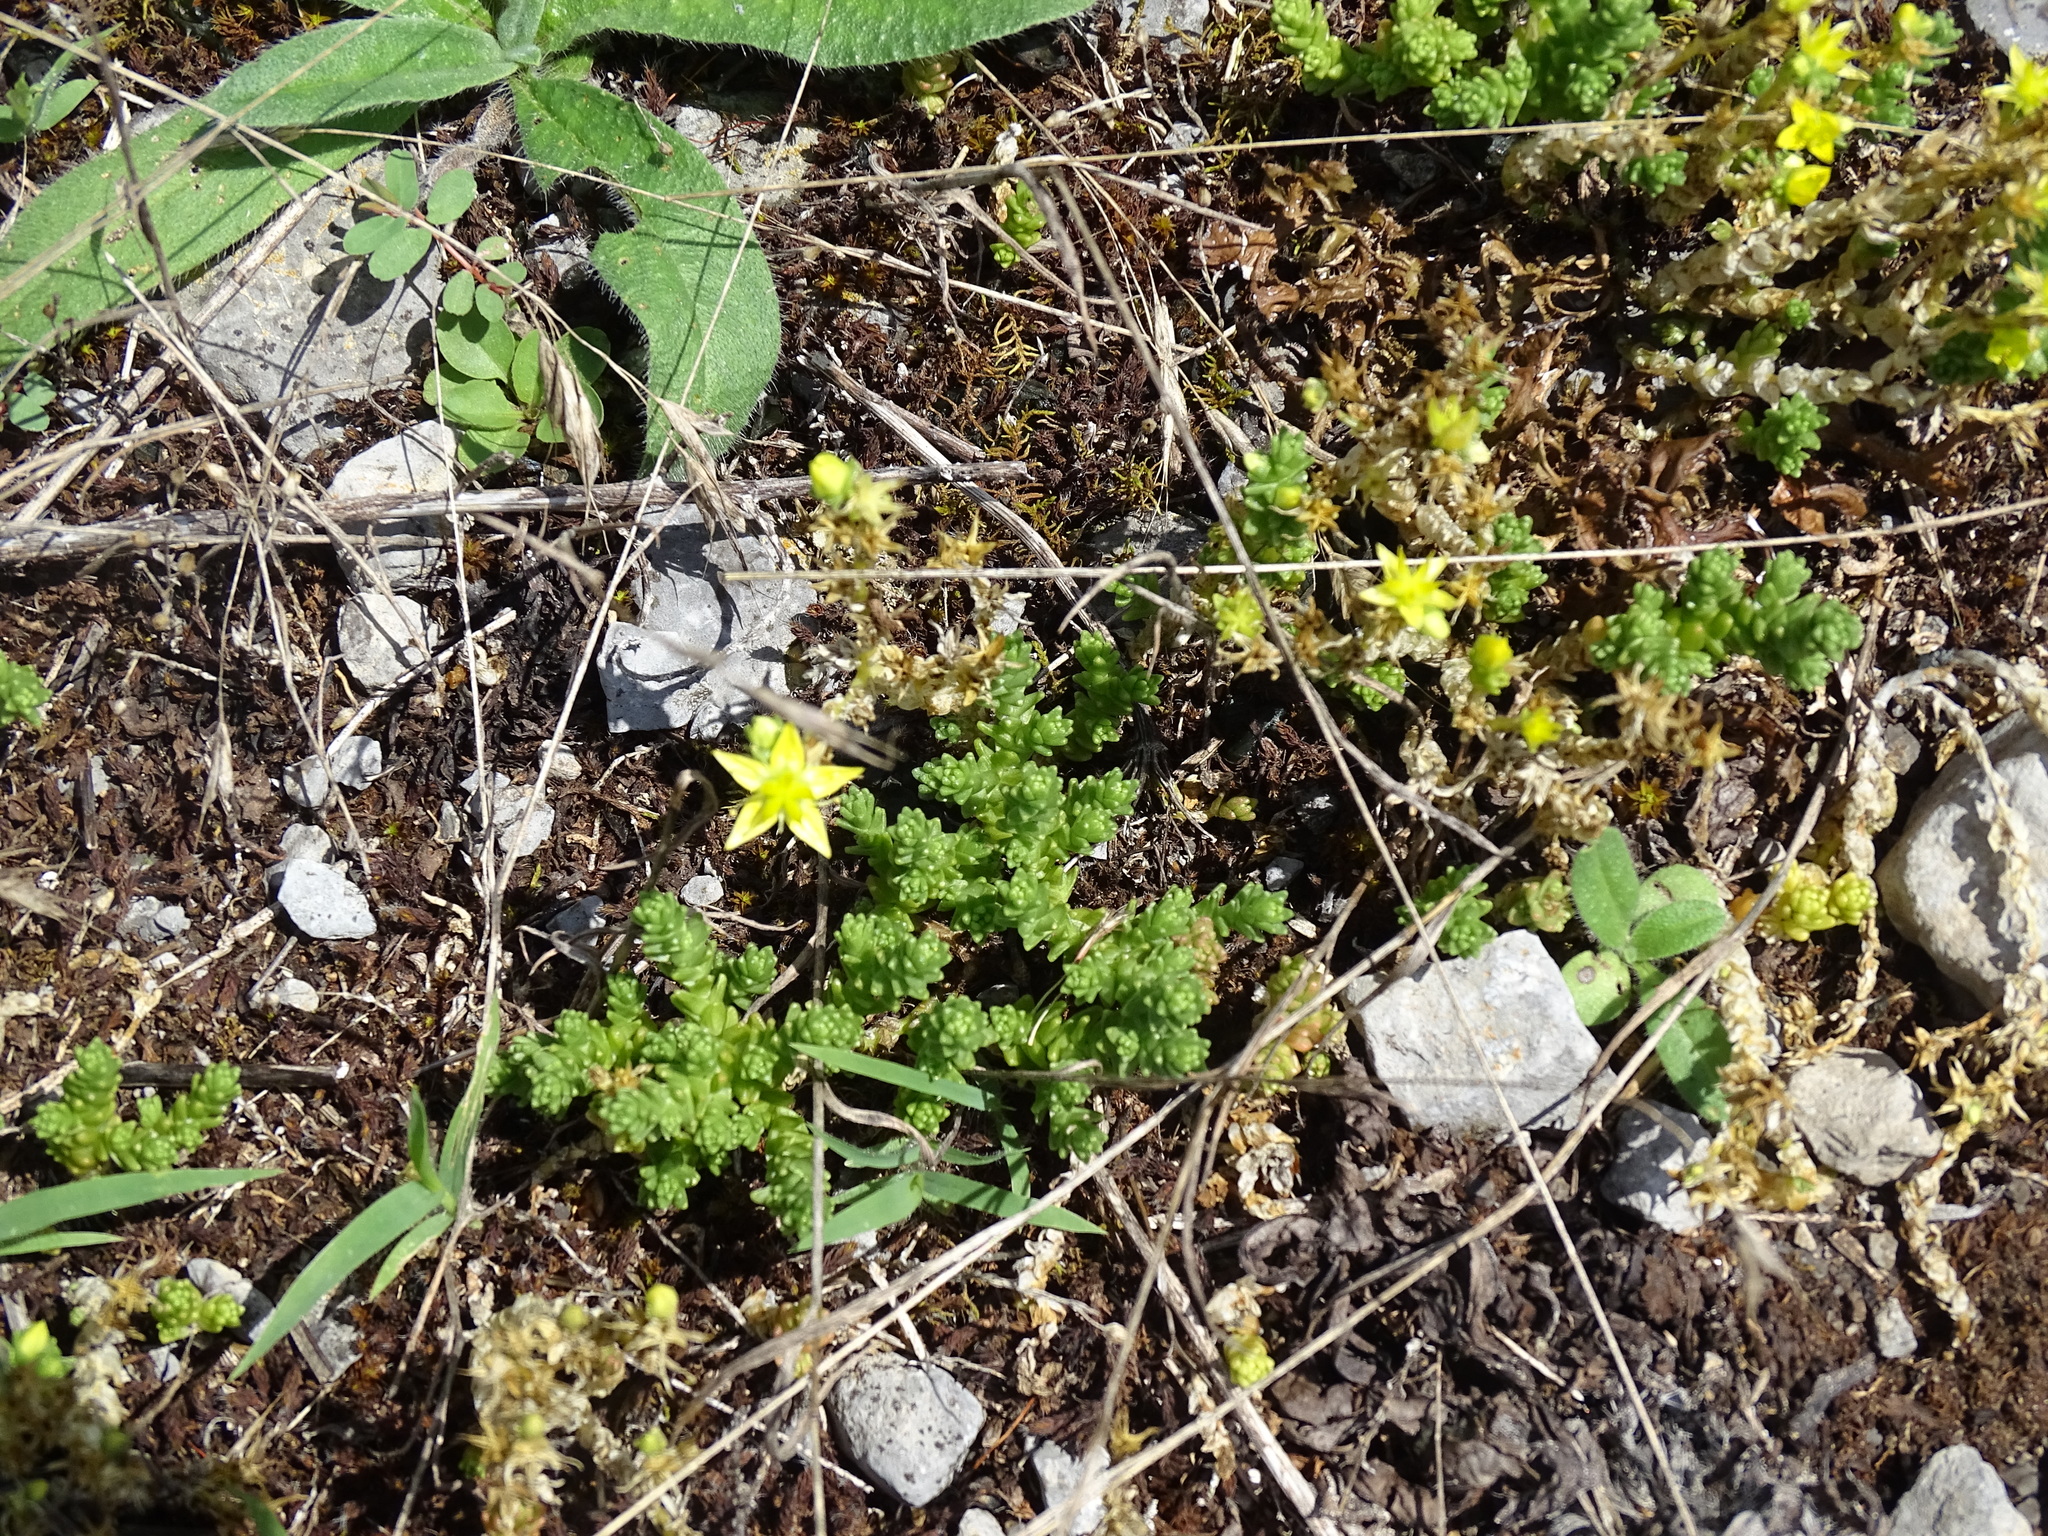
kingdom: Plantae
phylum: Tracheophyta
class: Magnoliopsida
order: Saxifragales
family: Crassulaceae
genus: Sedum
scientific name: Sedum acre
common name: Biting stonecrop
